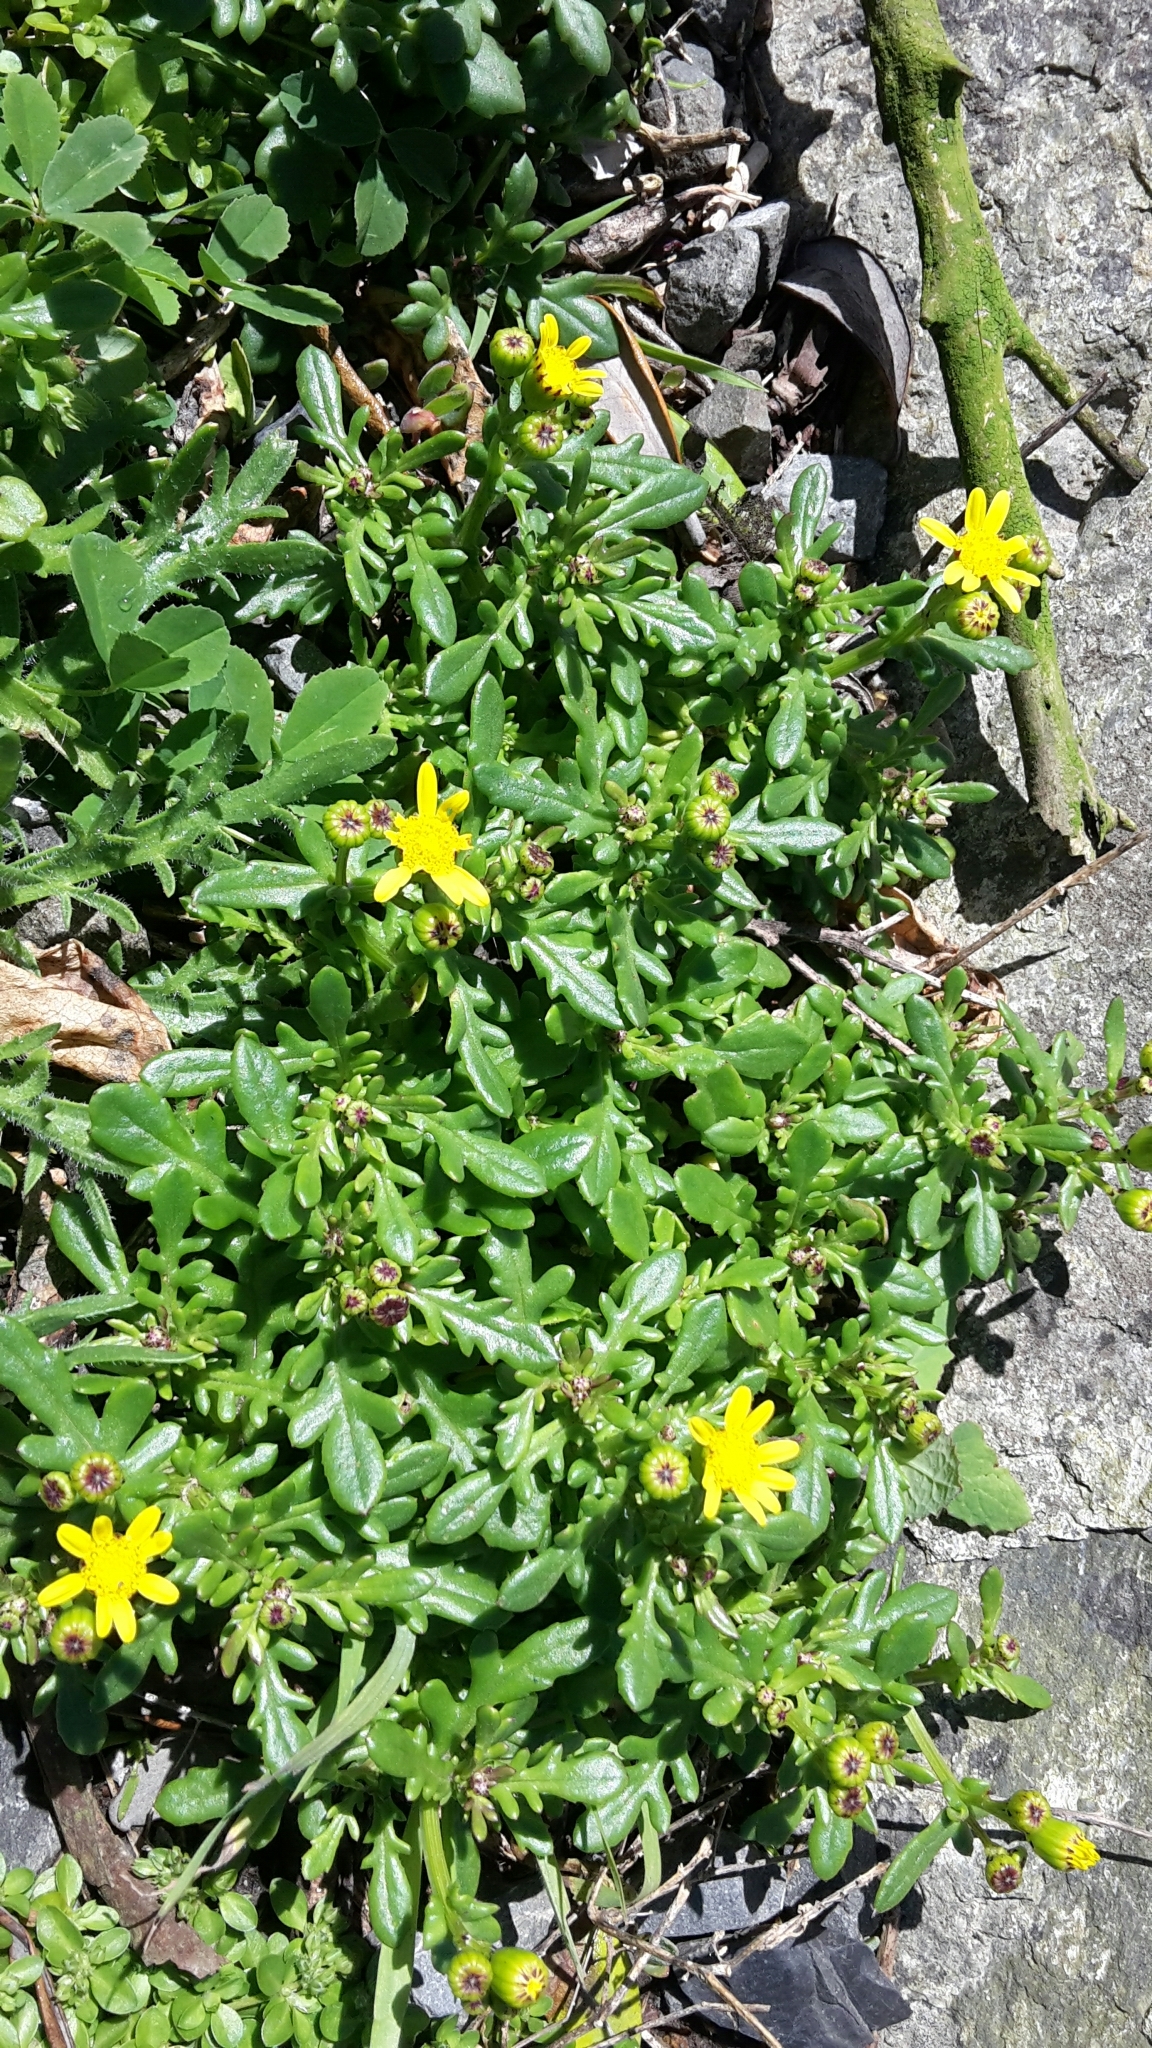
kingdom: Plantae
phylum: Tracheophyta
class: Magnoliopsida
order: Asterales
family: Asteraceae
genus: Senecio
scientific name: Senecio lautus
